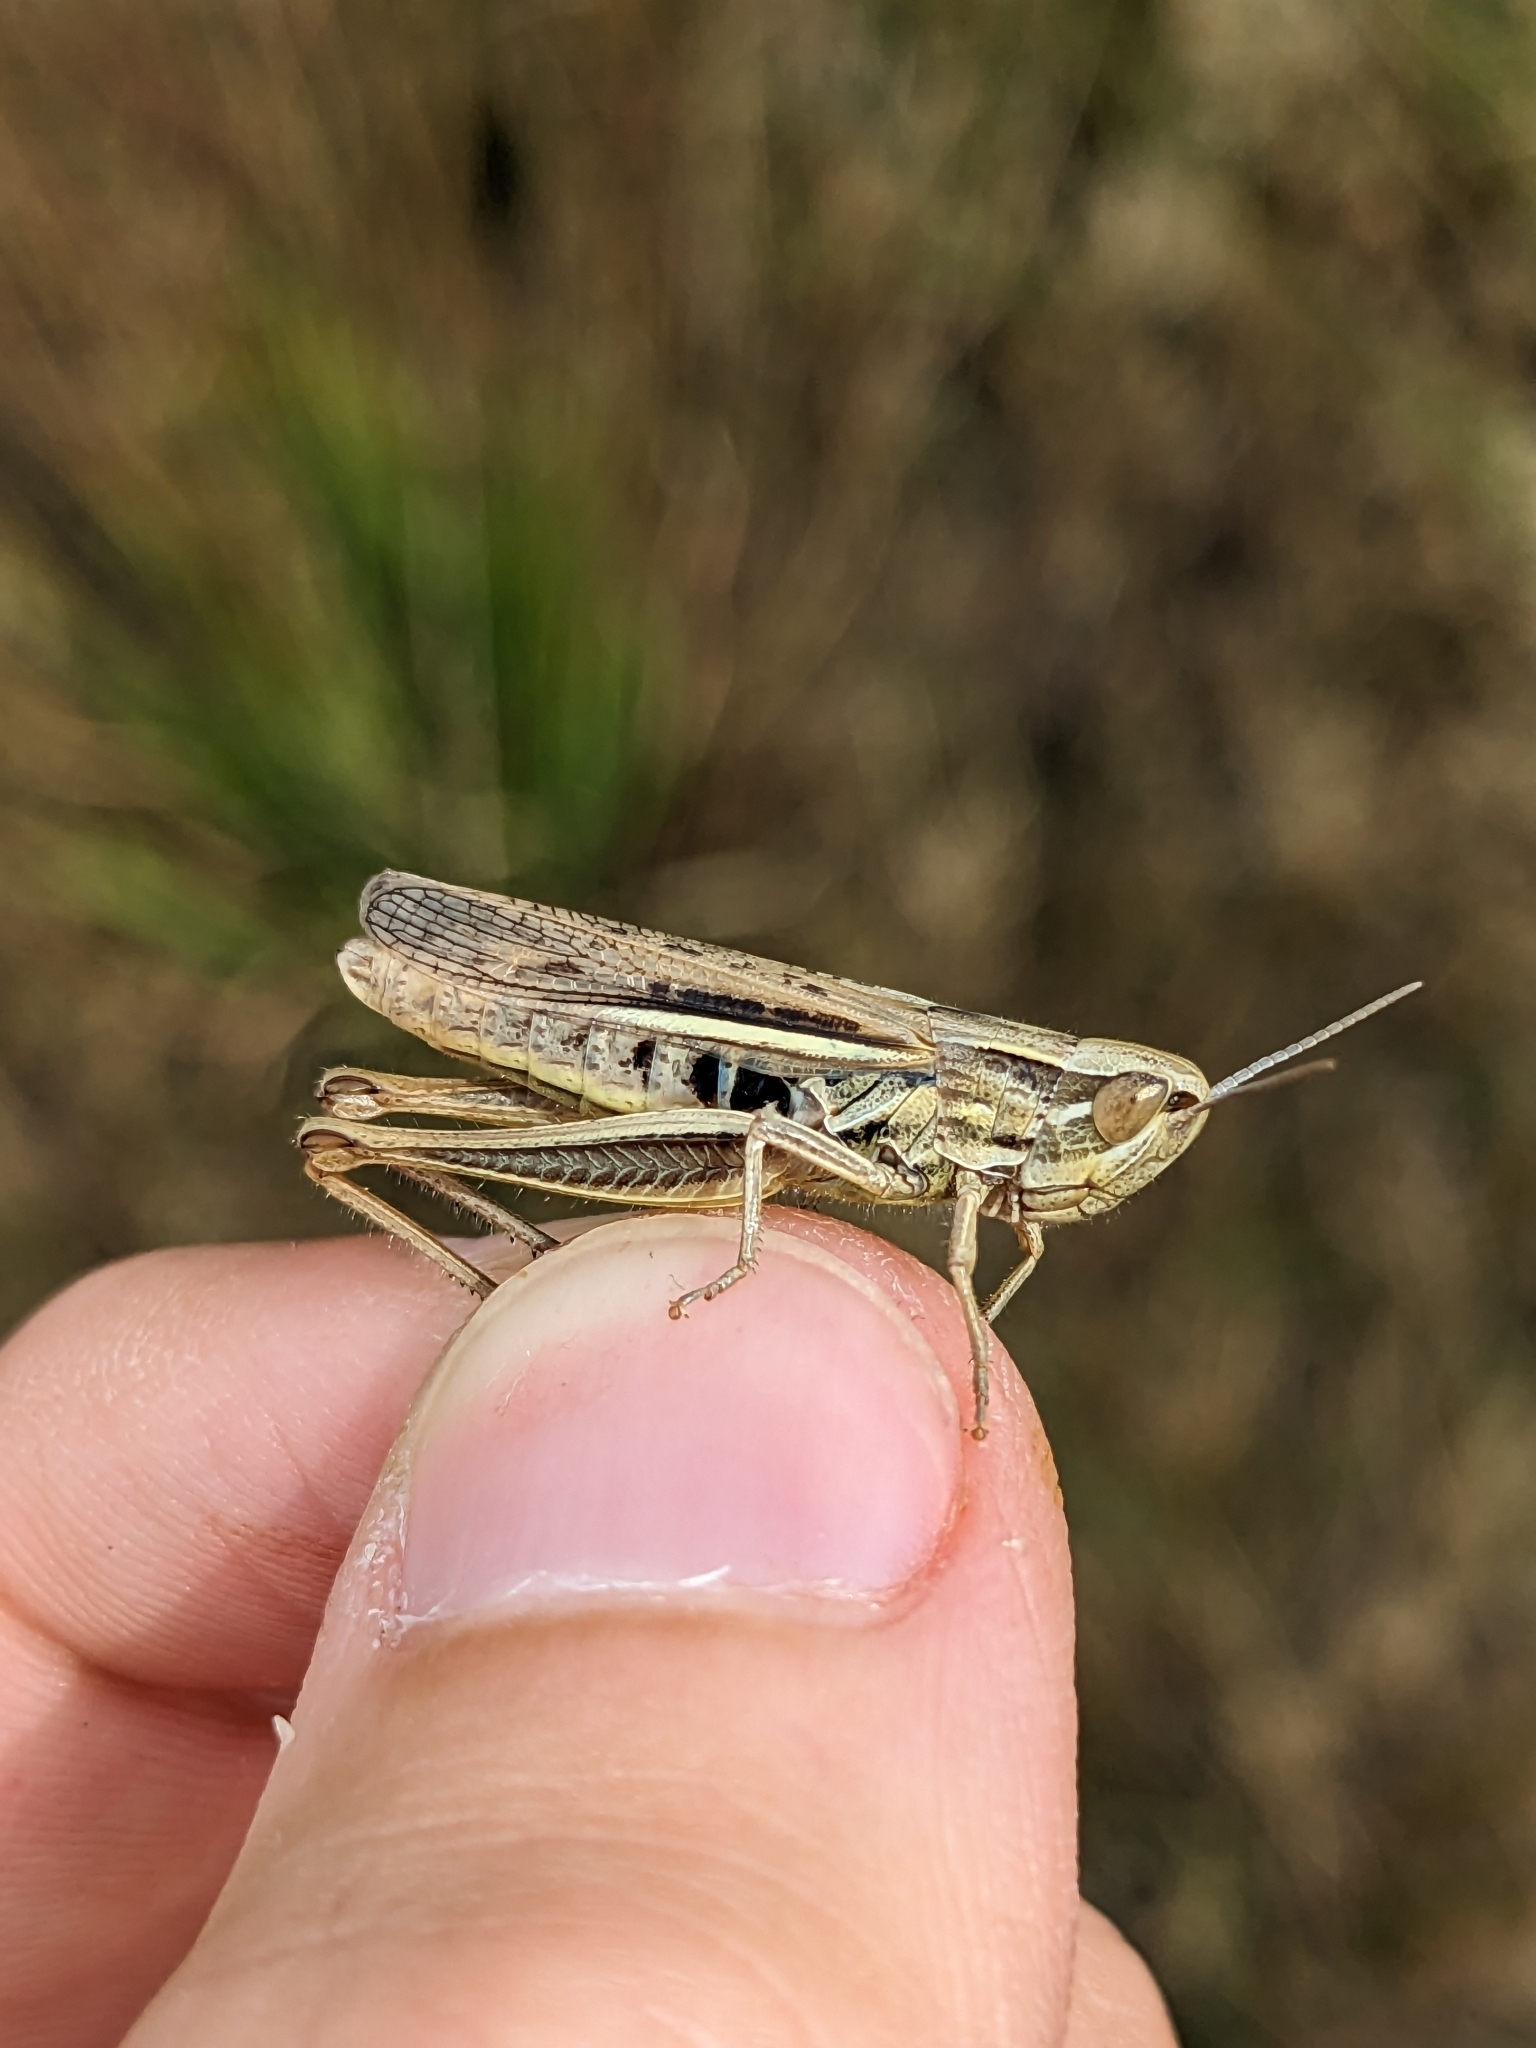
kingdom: Animalia
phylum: Arthropoda
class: Insecta
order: Orthoptera
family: Acrididae
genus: Euchorthippus
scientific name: Euchorthippus elegantulus
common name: Elegant straw grasshopper
